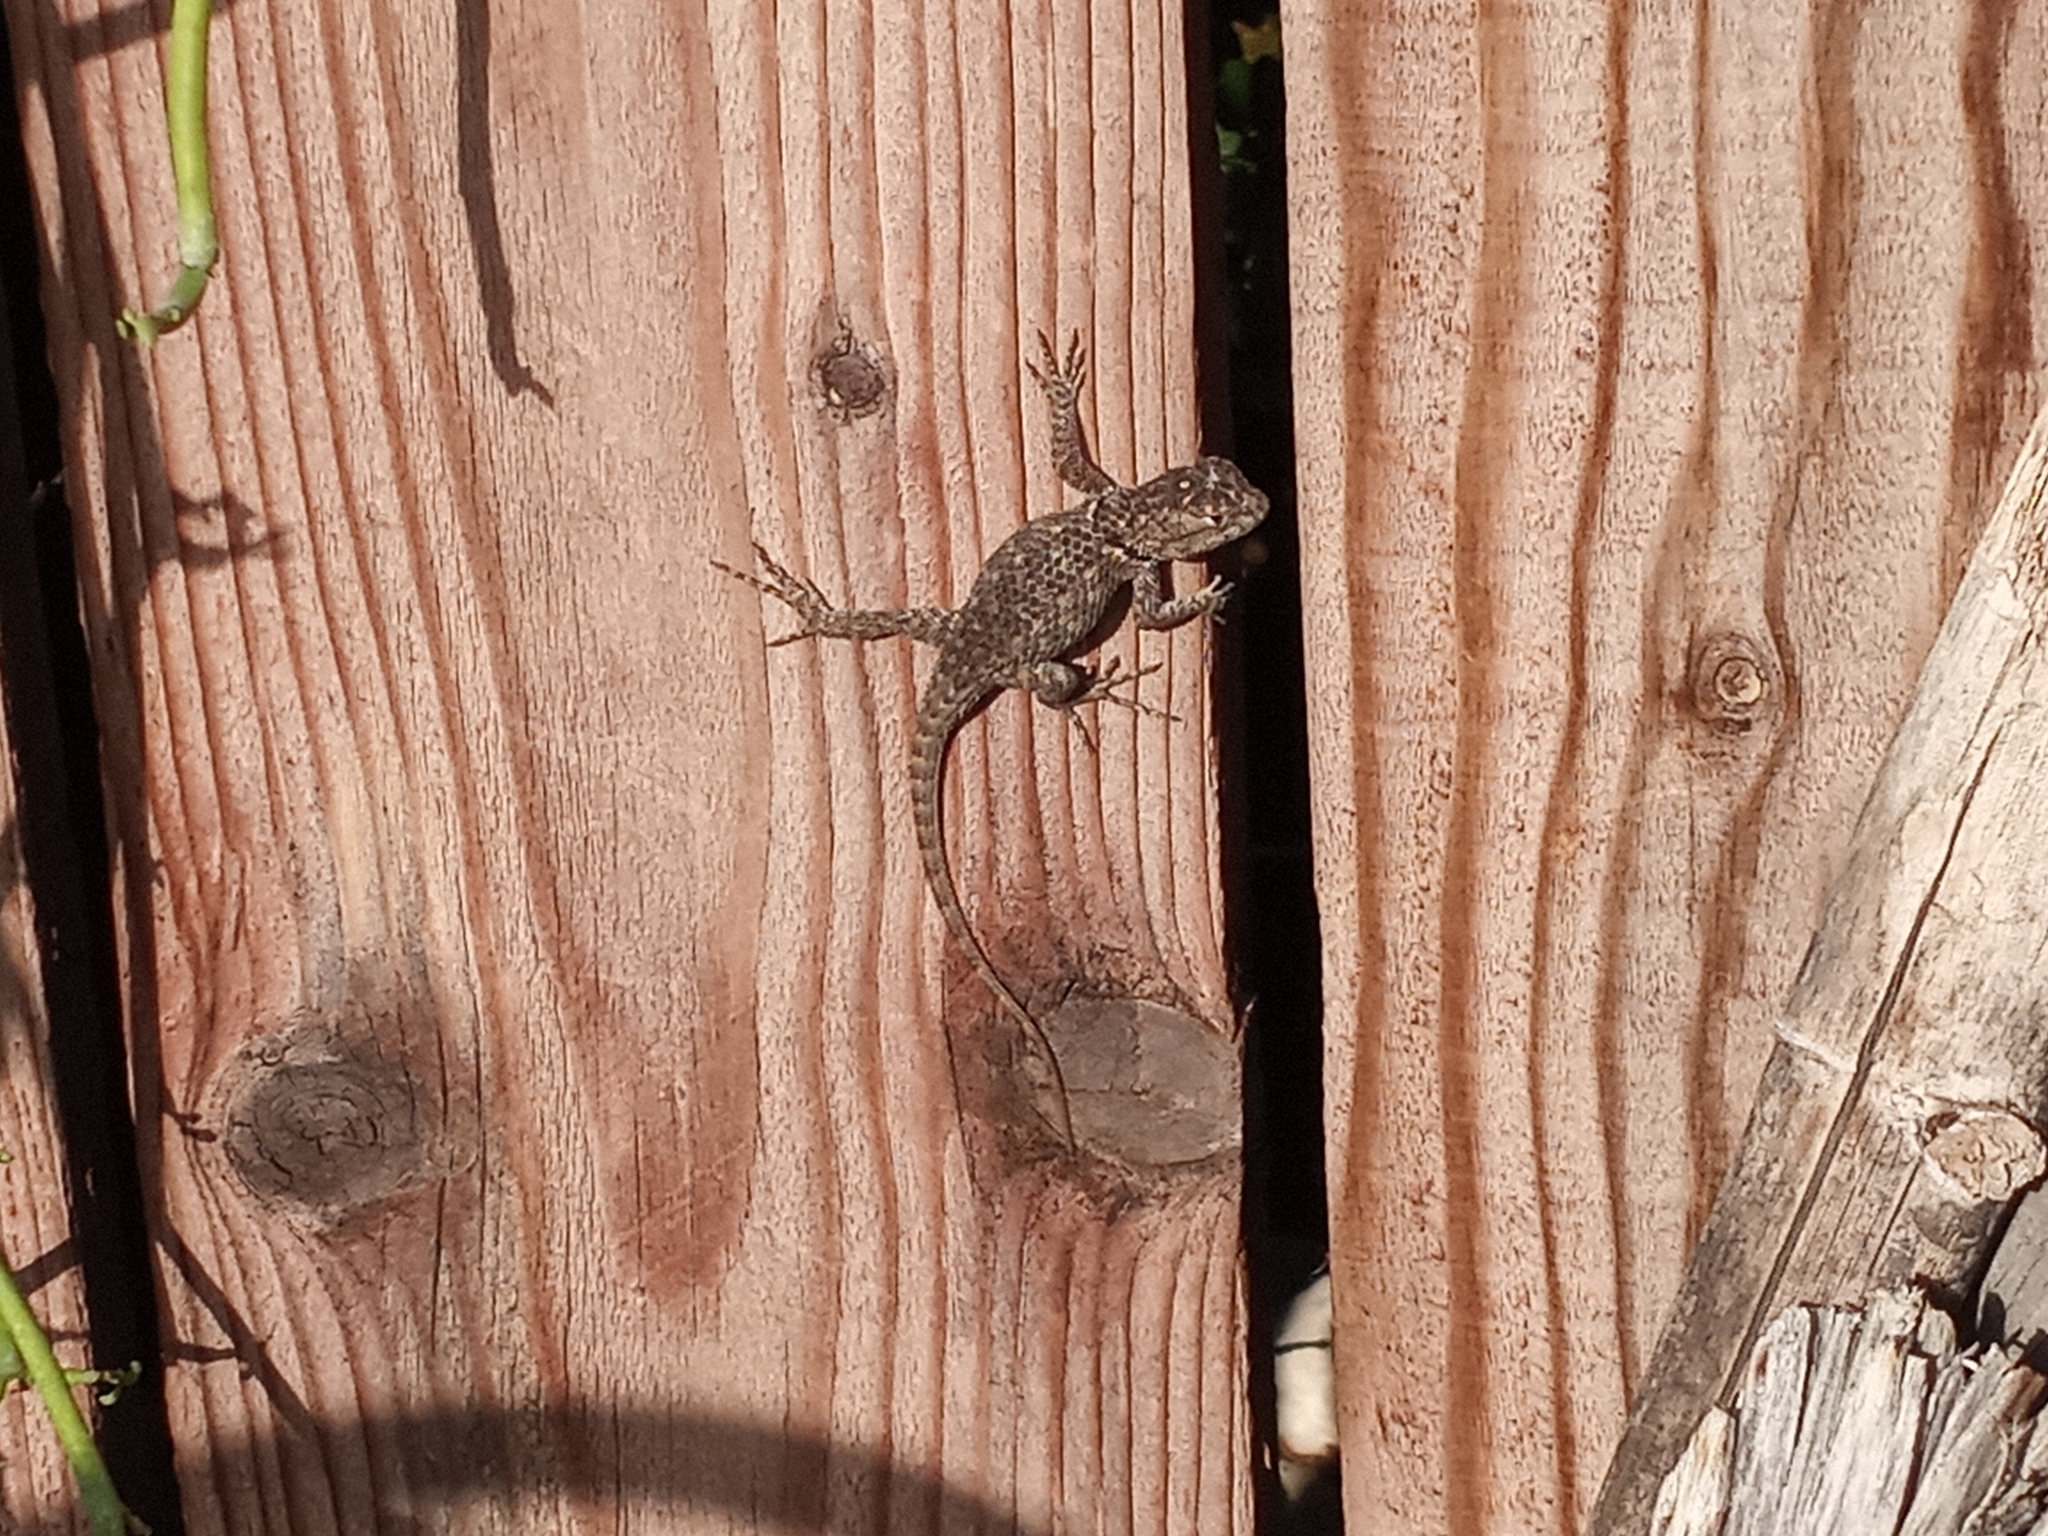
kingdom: Animalia
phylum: Chordata
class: Squamata
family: Phrynosomatidae
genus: Sceloporus
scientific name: Sceloporus magister
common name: Desert spiny lizard
